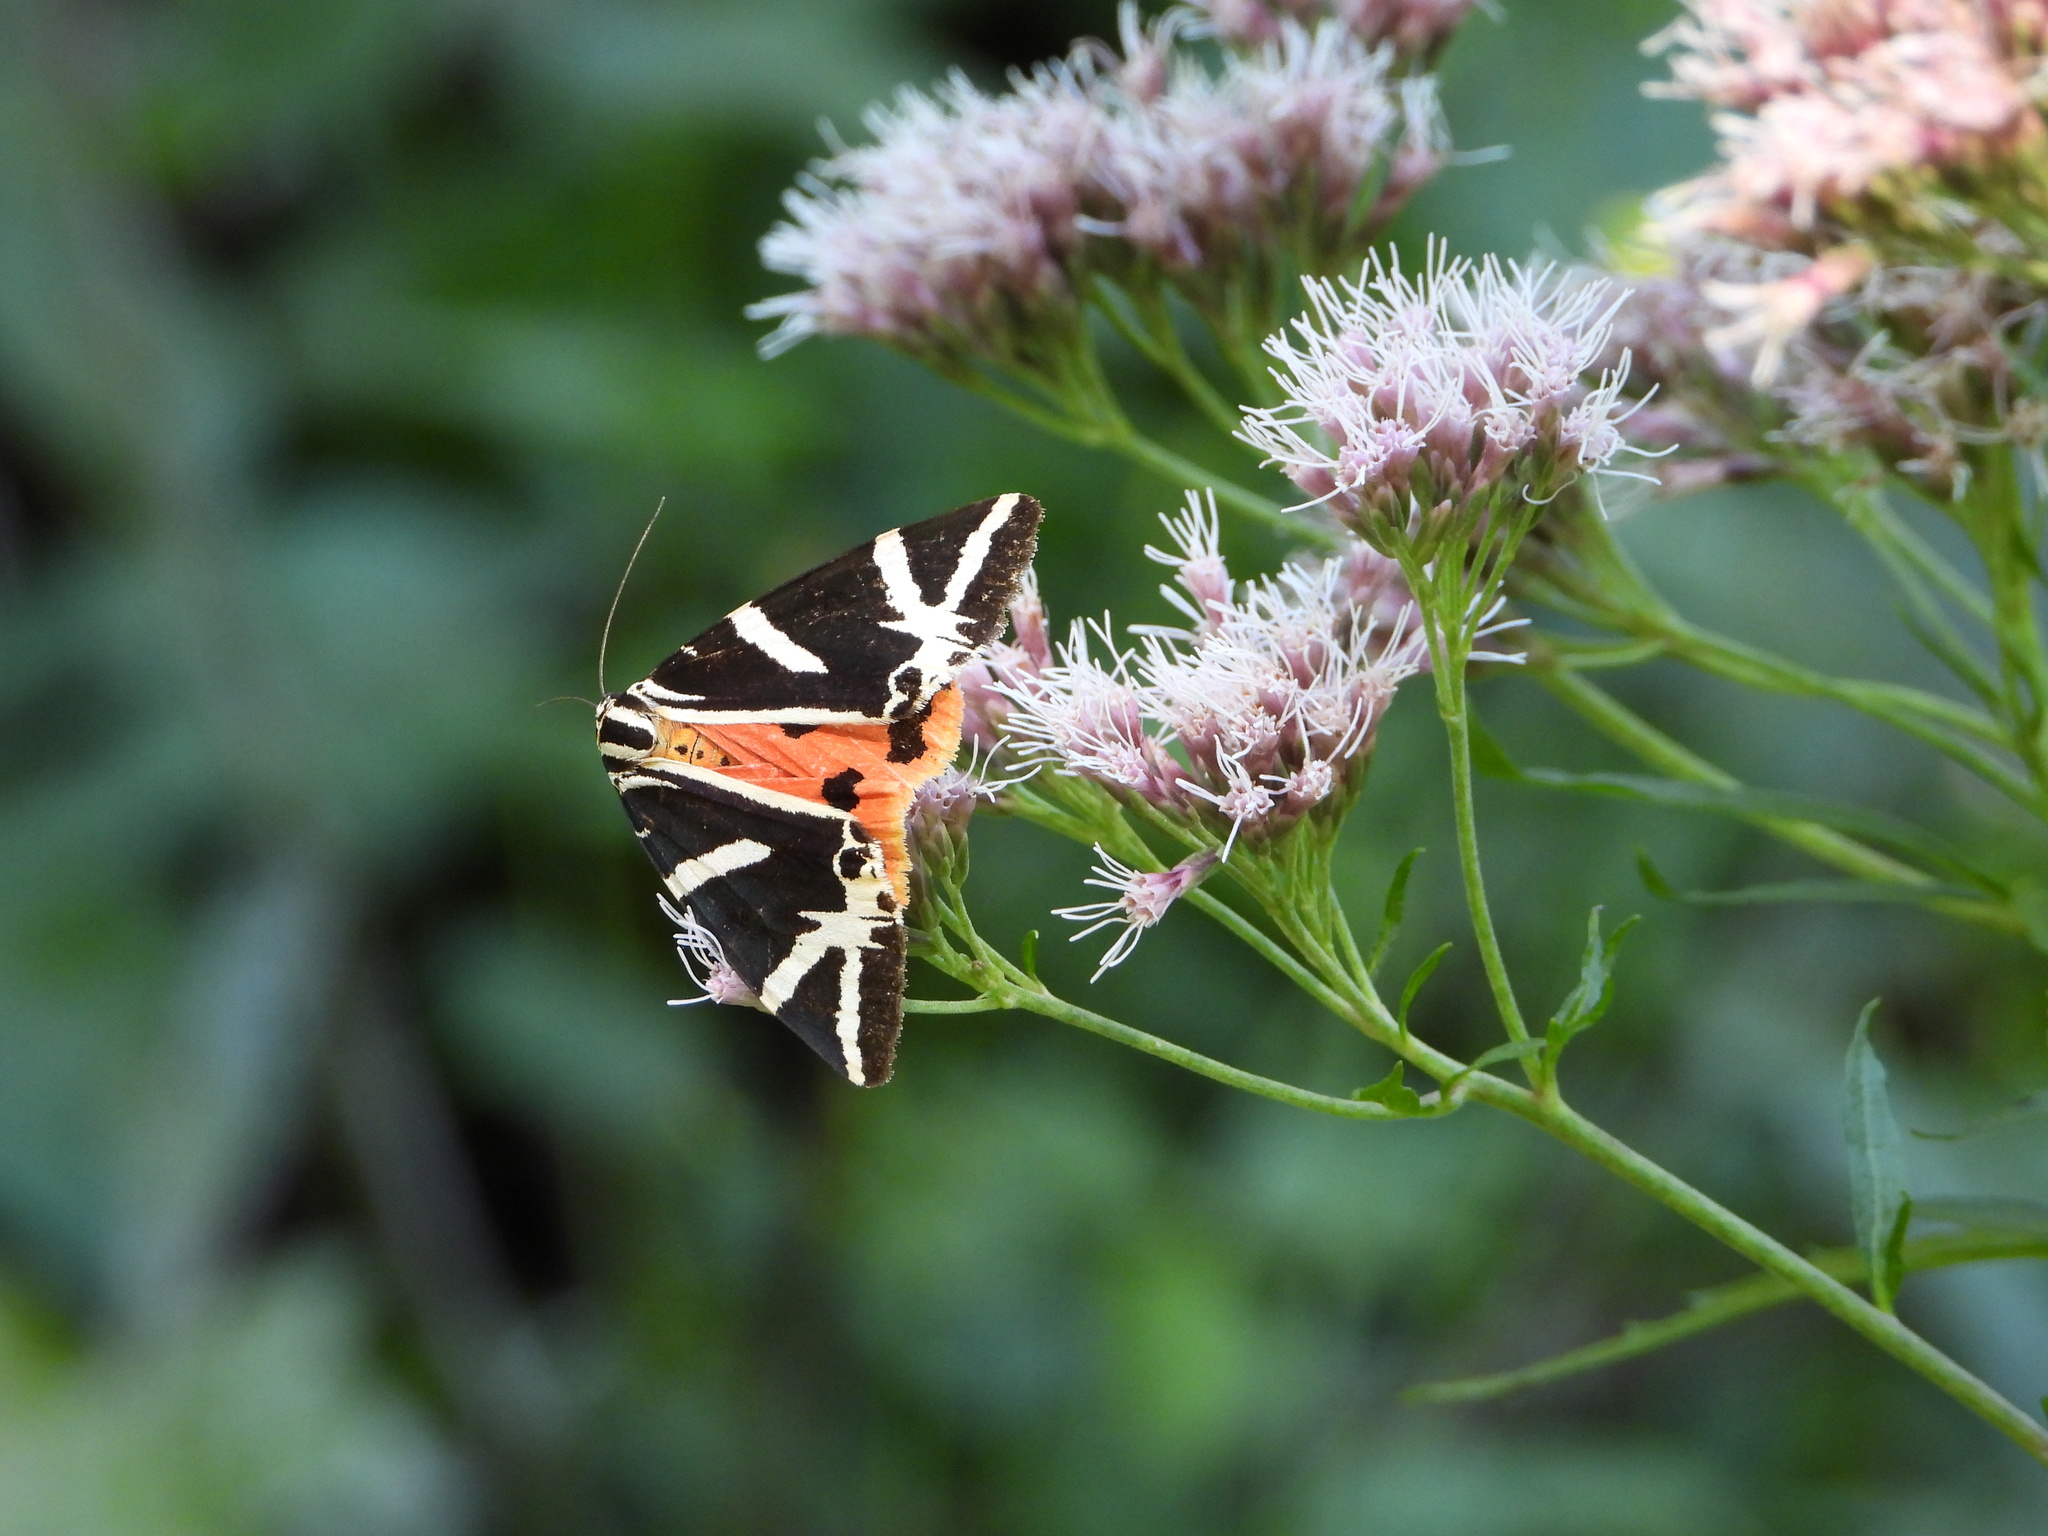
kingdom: Animalia
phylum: Arthropoda
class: Insecta
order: Lepidoptera
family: Erebidae
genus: Euplagia
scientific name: Euplagia quadripunctaria
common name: Jersey tiger
